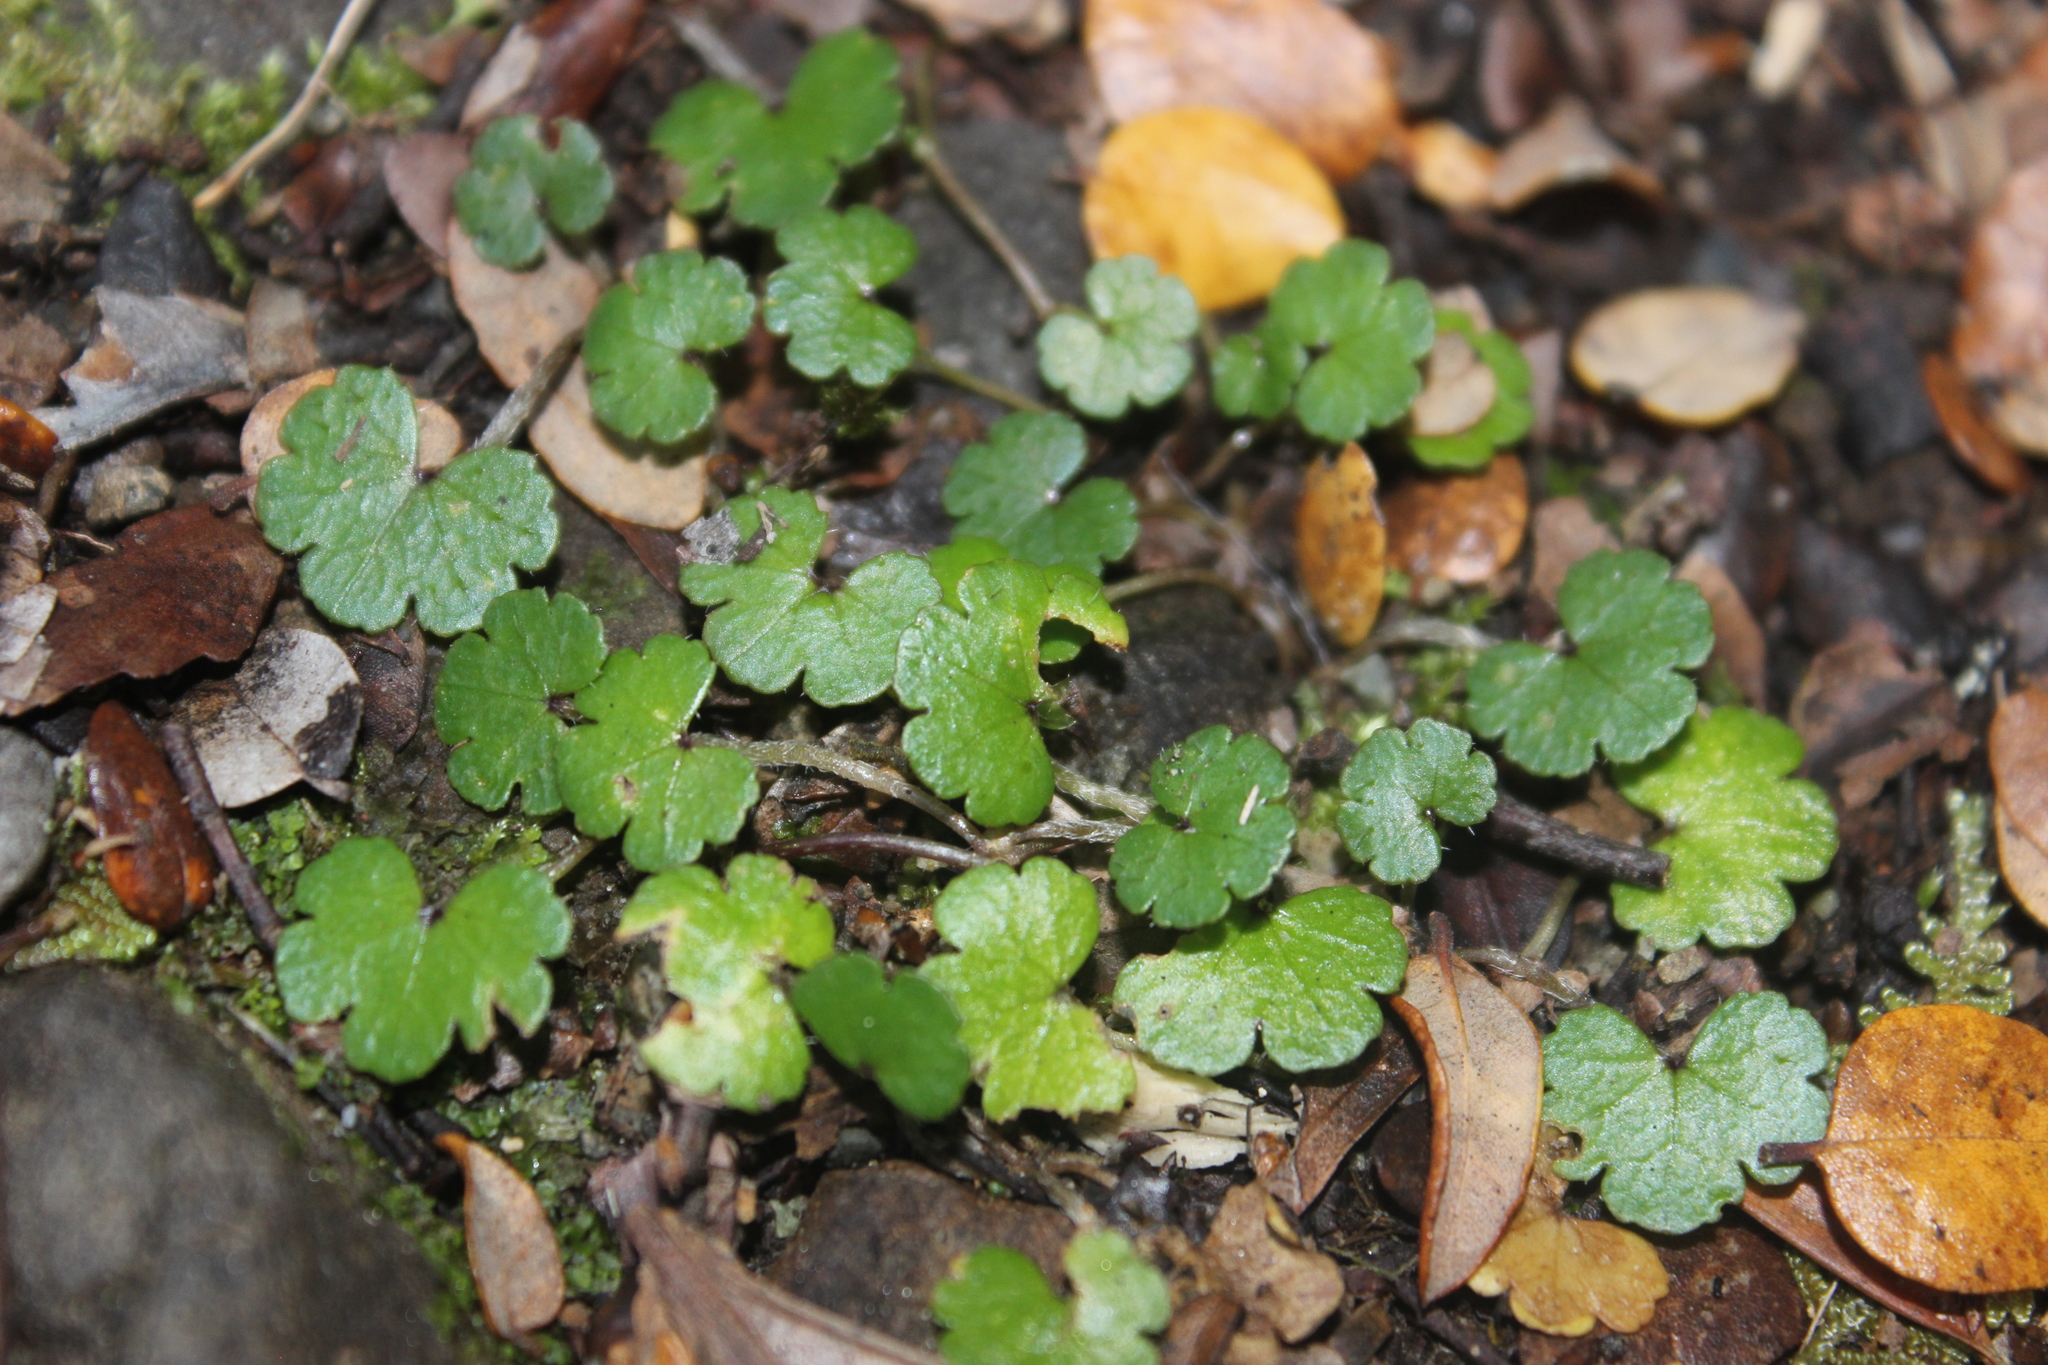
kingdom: Plantae
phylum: Tracheophyta
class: Magnoliopsida
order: Apiales
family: Araliaceae
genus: Hydrocotyle
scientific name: Hydrocotyle novae-zeelandiae
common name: New zealand pennywort
